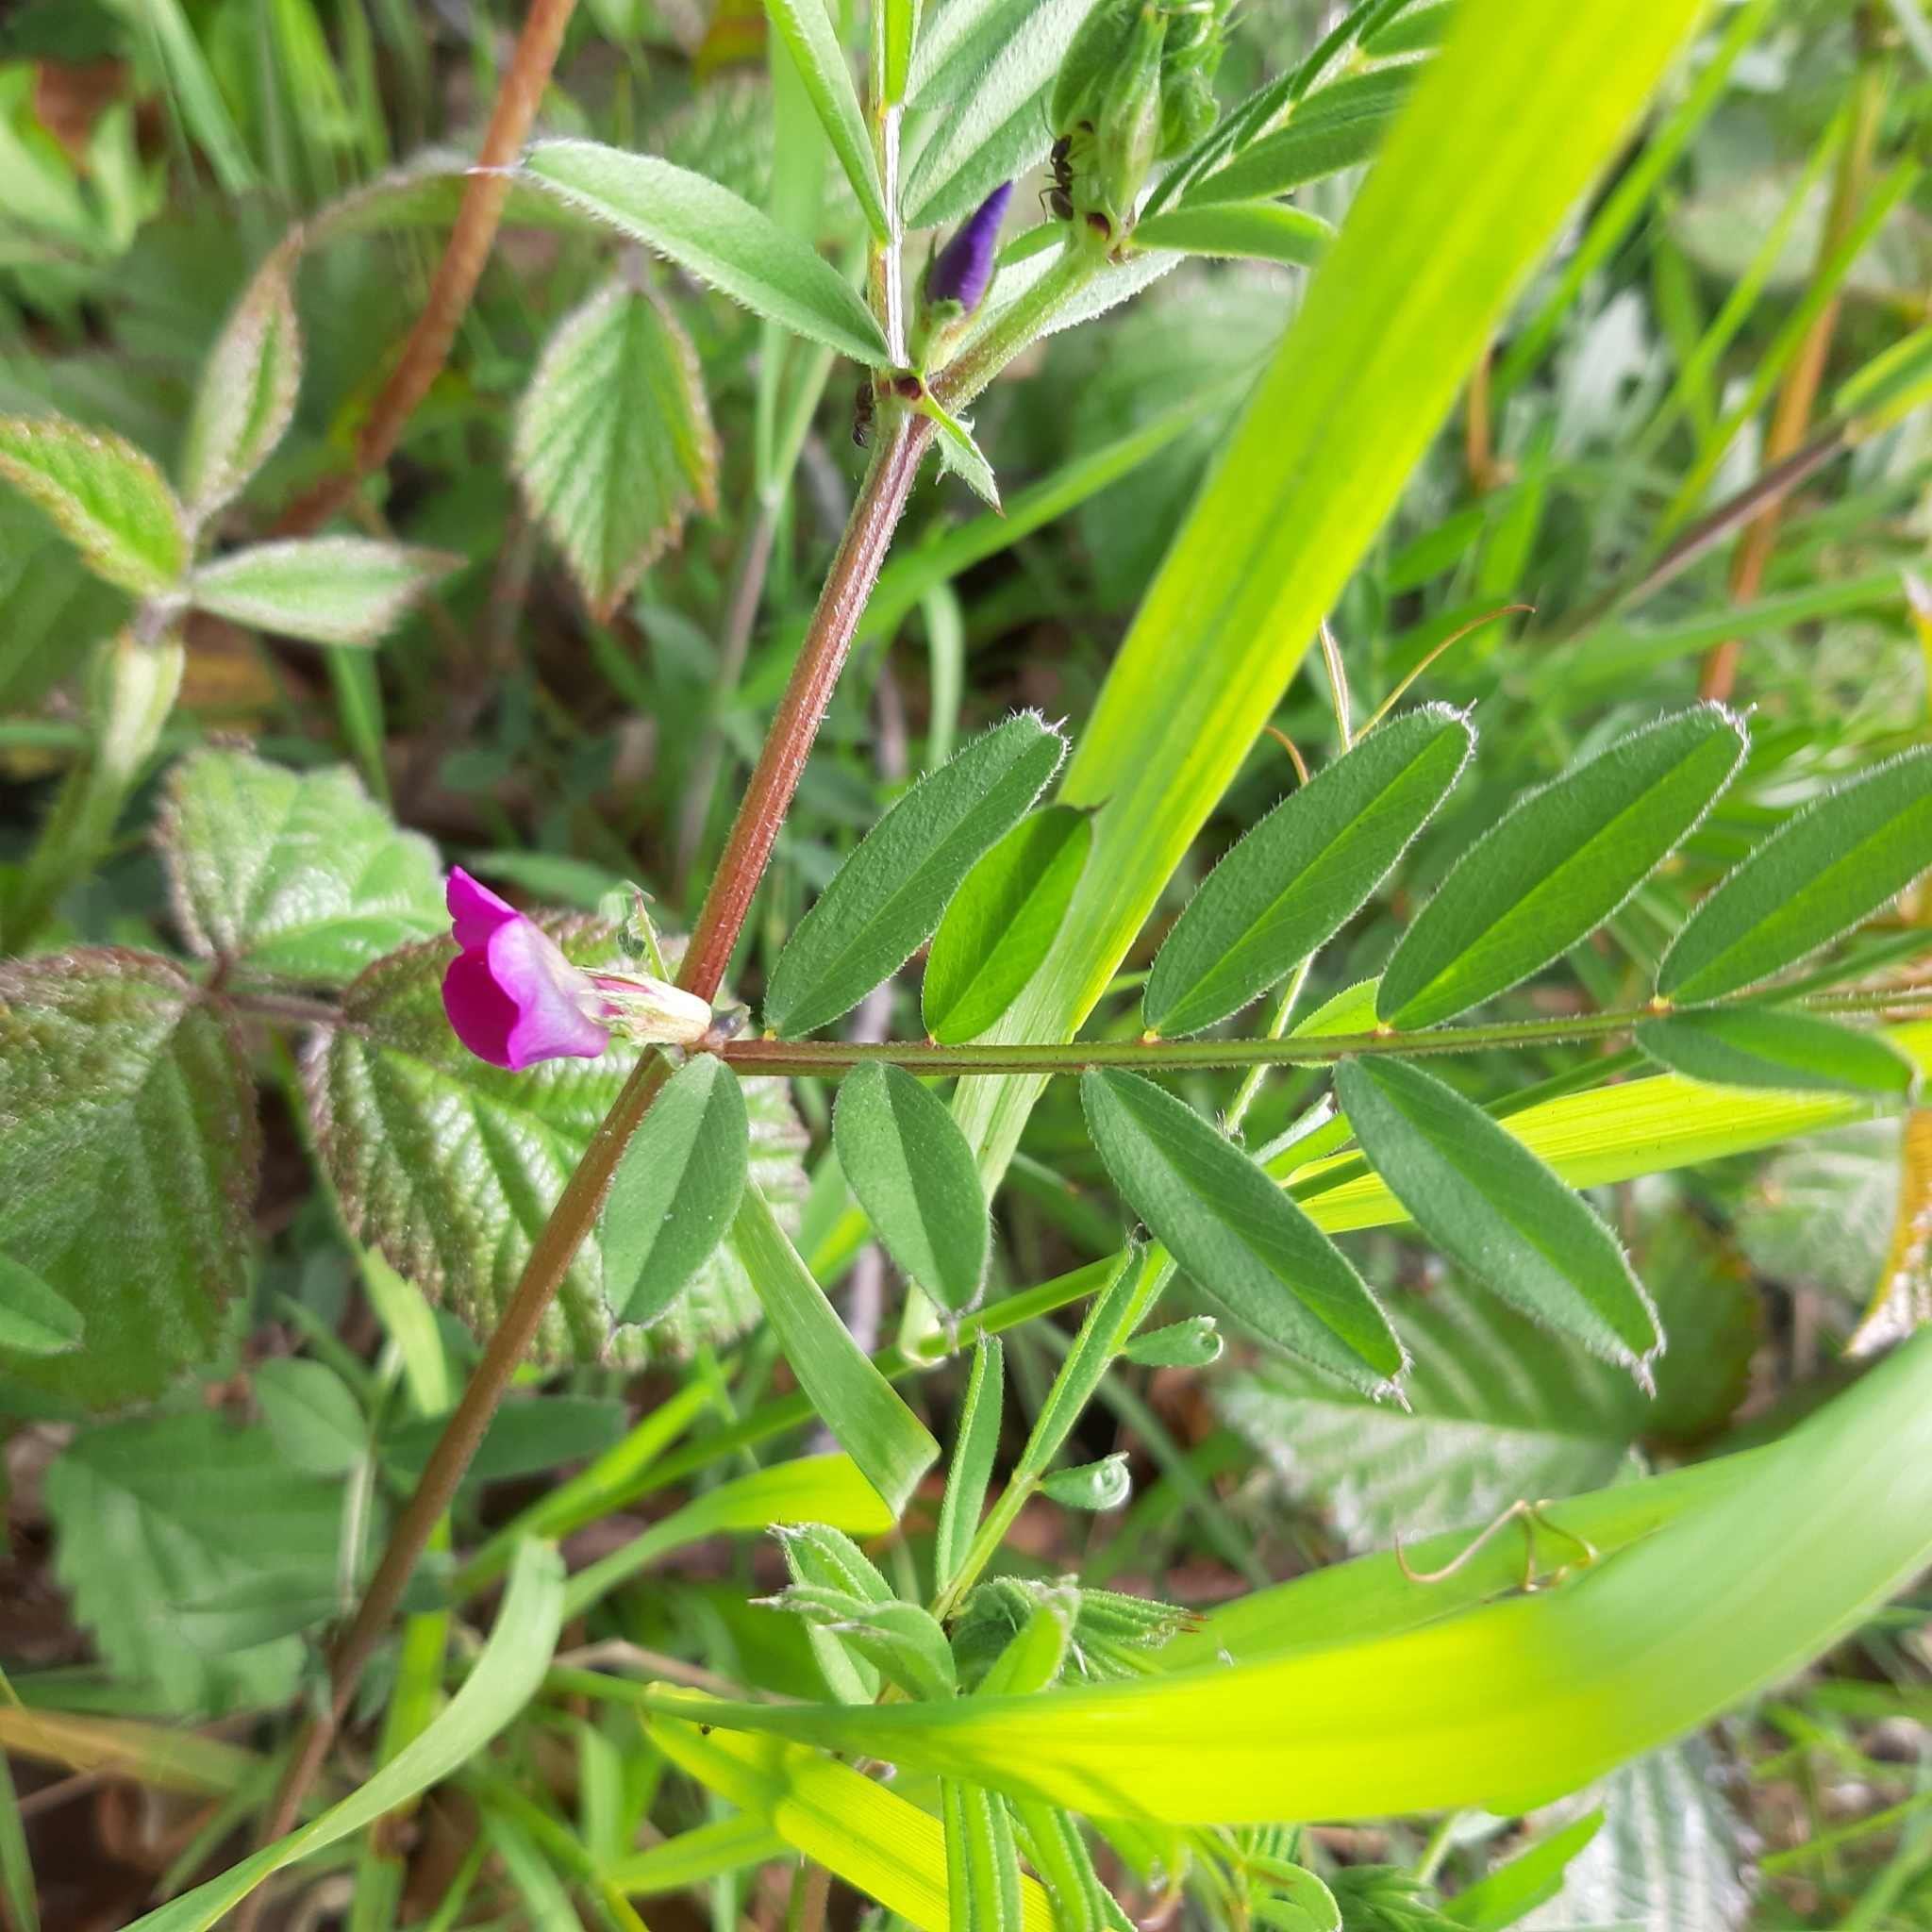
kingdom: Plantae
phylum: Tracheophyta
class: Magnoliopsida
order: Fabales
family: Fabaceae
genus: Vicia
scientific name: Vicia sativa
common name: Garden vetch
